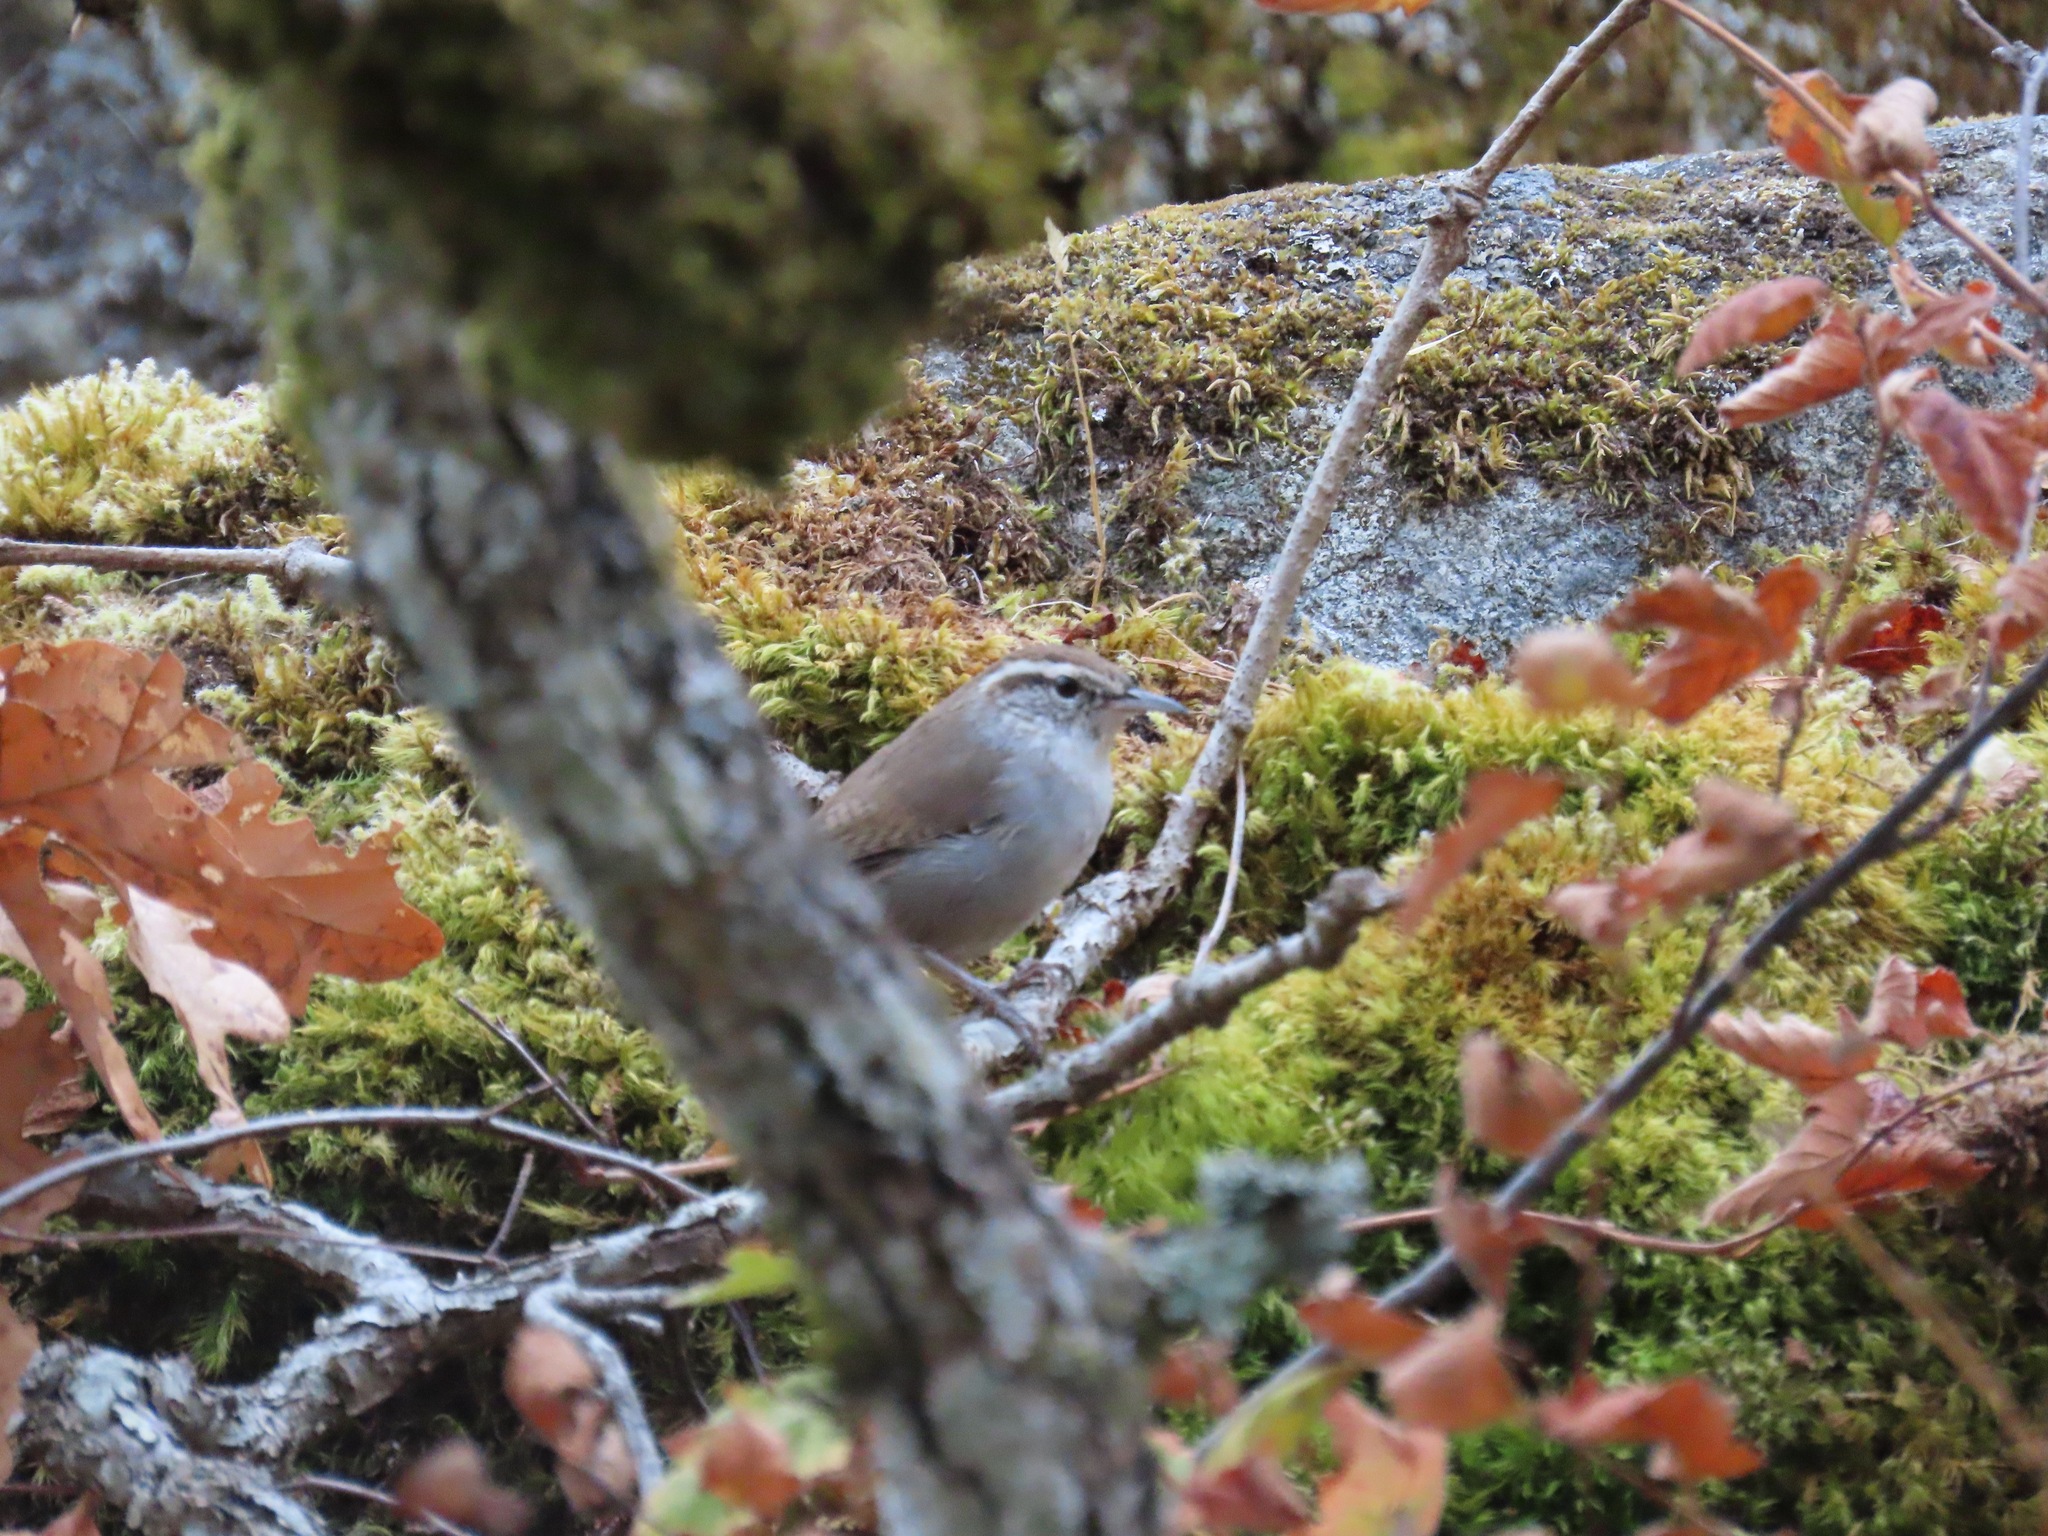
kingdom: Animalia
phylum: Chordata
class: Aves
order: Passeriformes
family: Troglodytidae
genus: Thryomanes
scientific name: Thryomanes bewickii
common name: Bewick's wren
